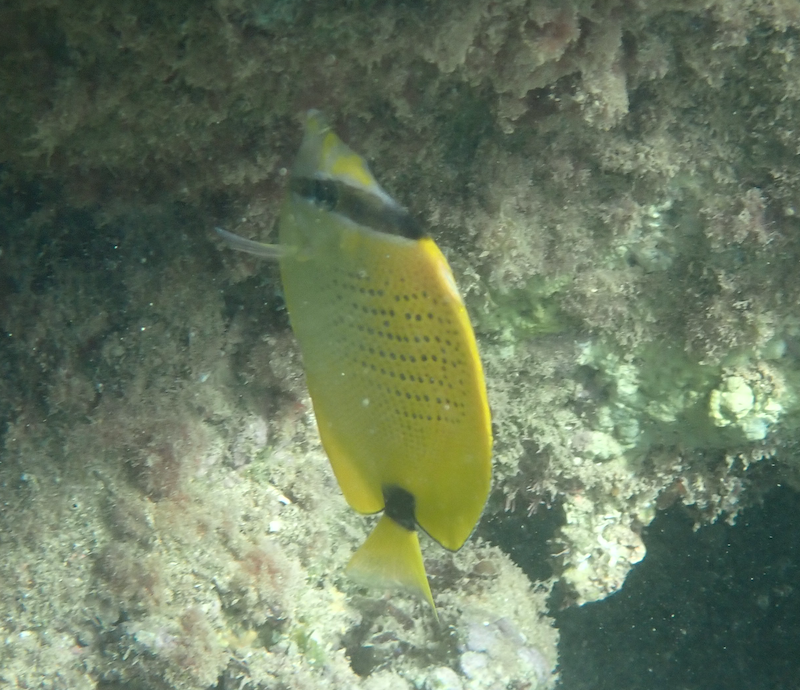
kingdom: Animalia
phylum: Chordata
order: Perciformes
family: Chaetodontidae
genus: Chaetodon
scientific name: Chaetodon miliaris
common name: Lemon butterflyfish
